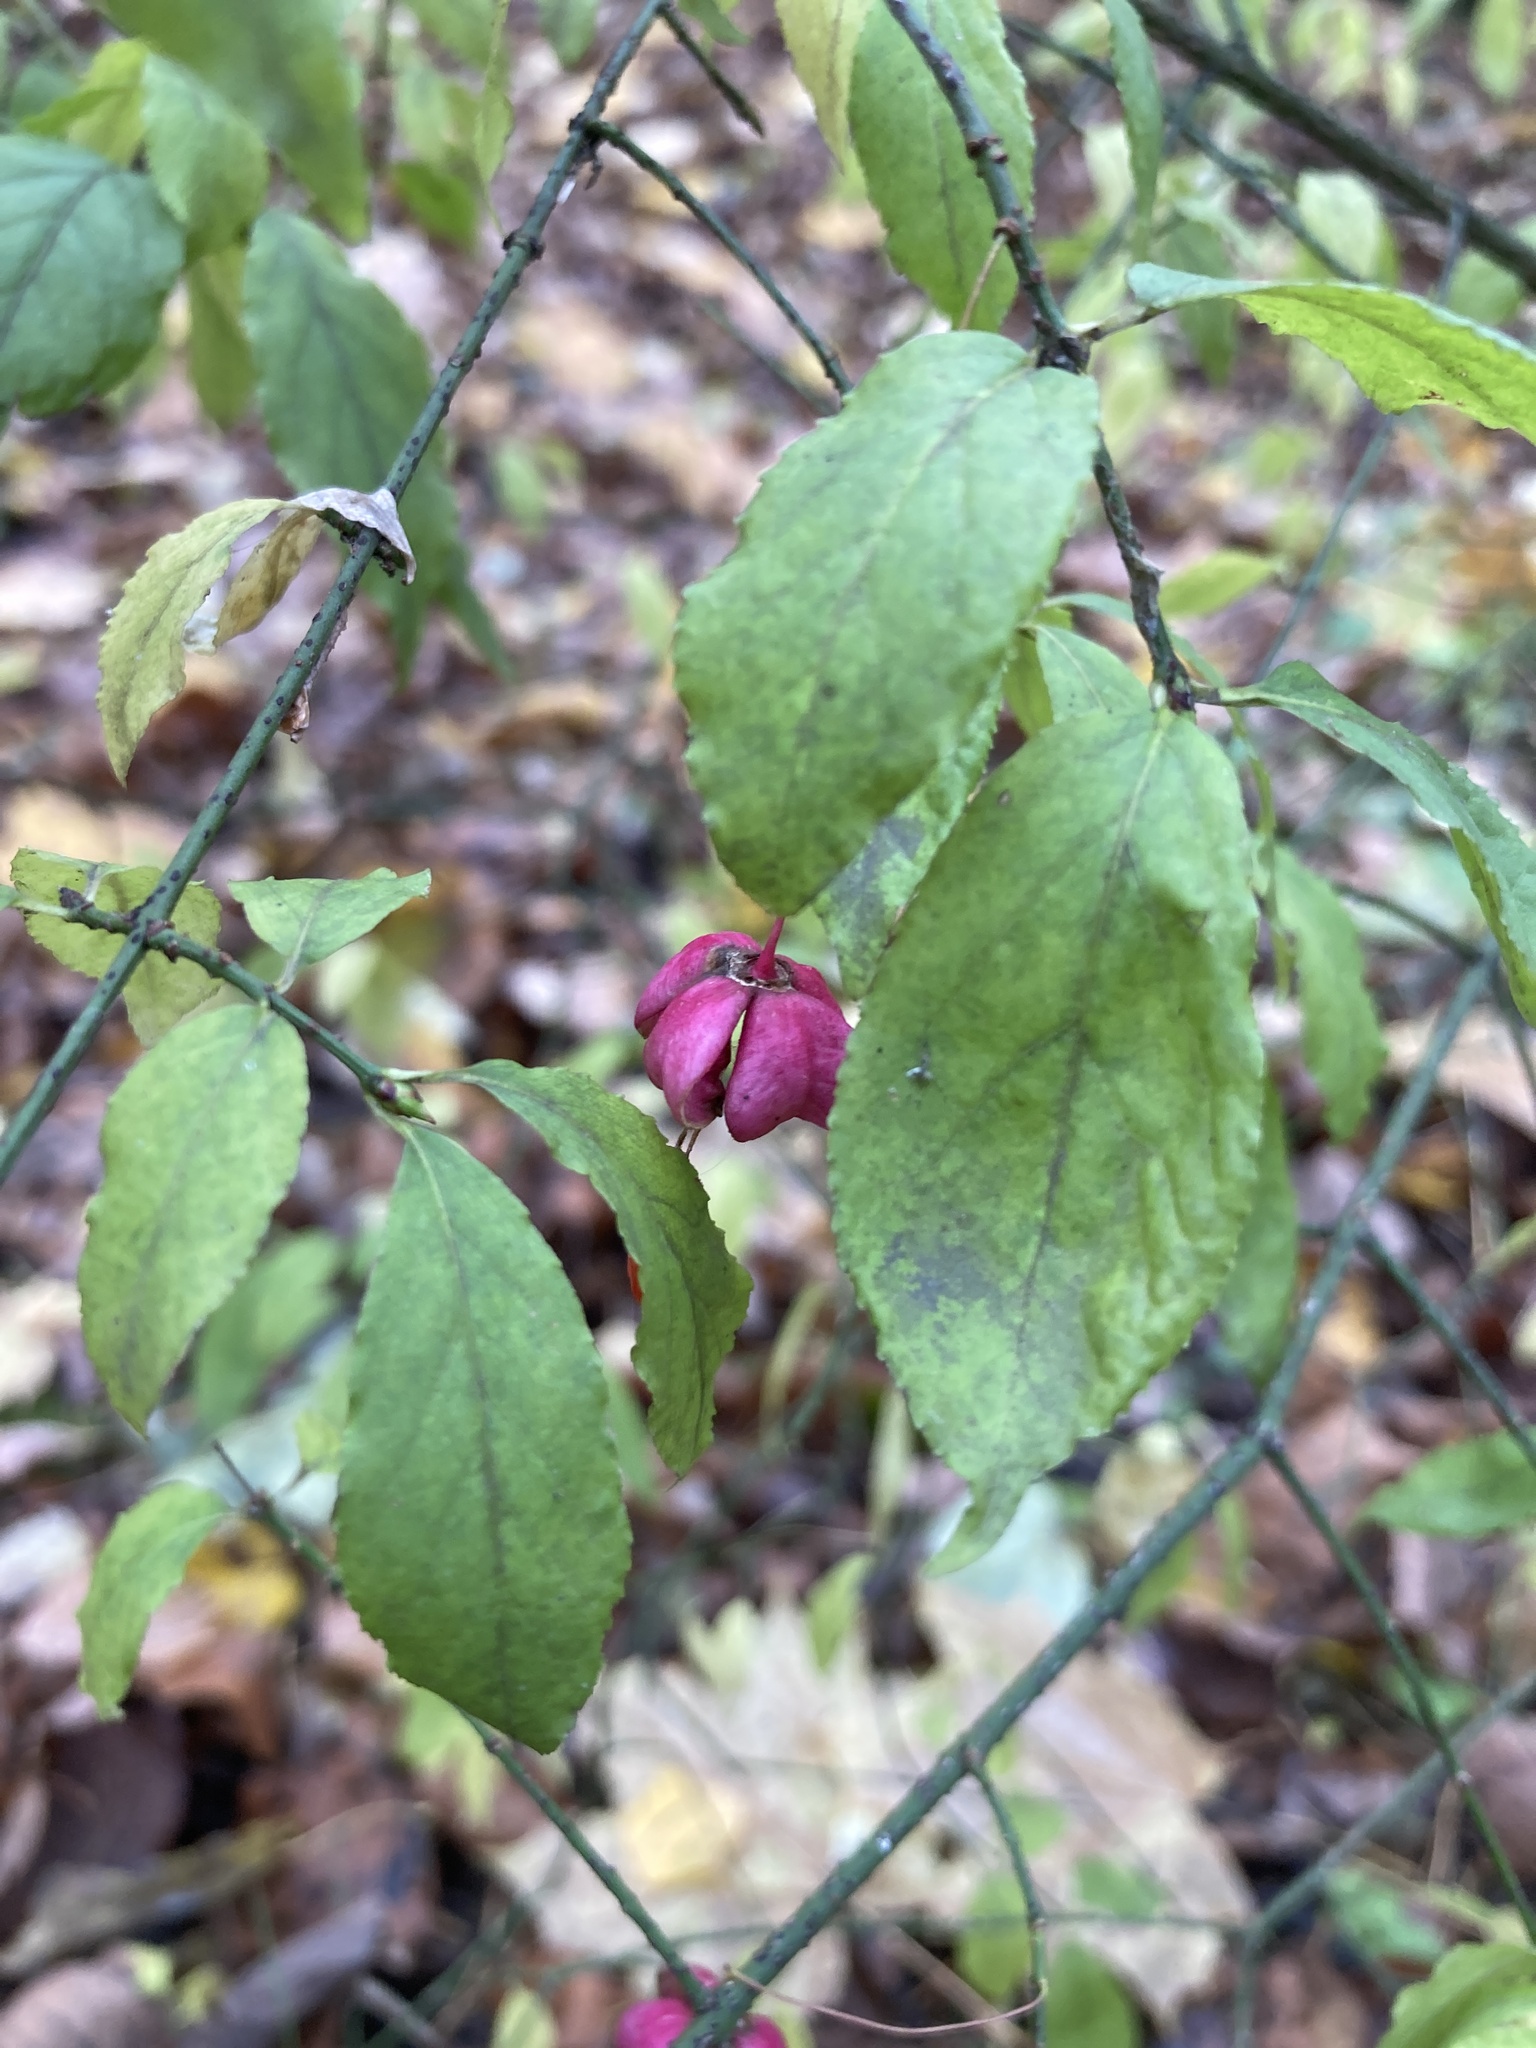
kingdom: Plantae
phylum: Tracheophyta
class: Magnoliopsida
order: Celastrales
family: Celastraceae
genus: Euonymus
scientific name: Euonymus verrucosus
